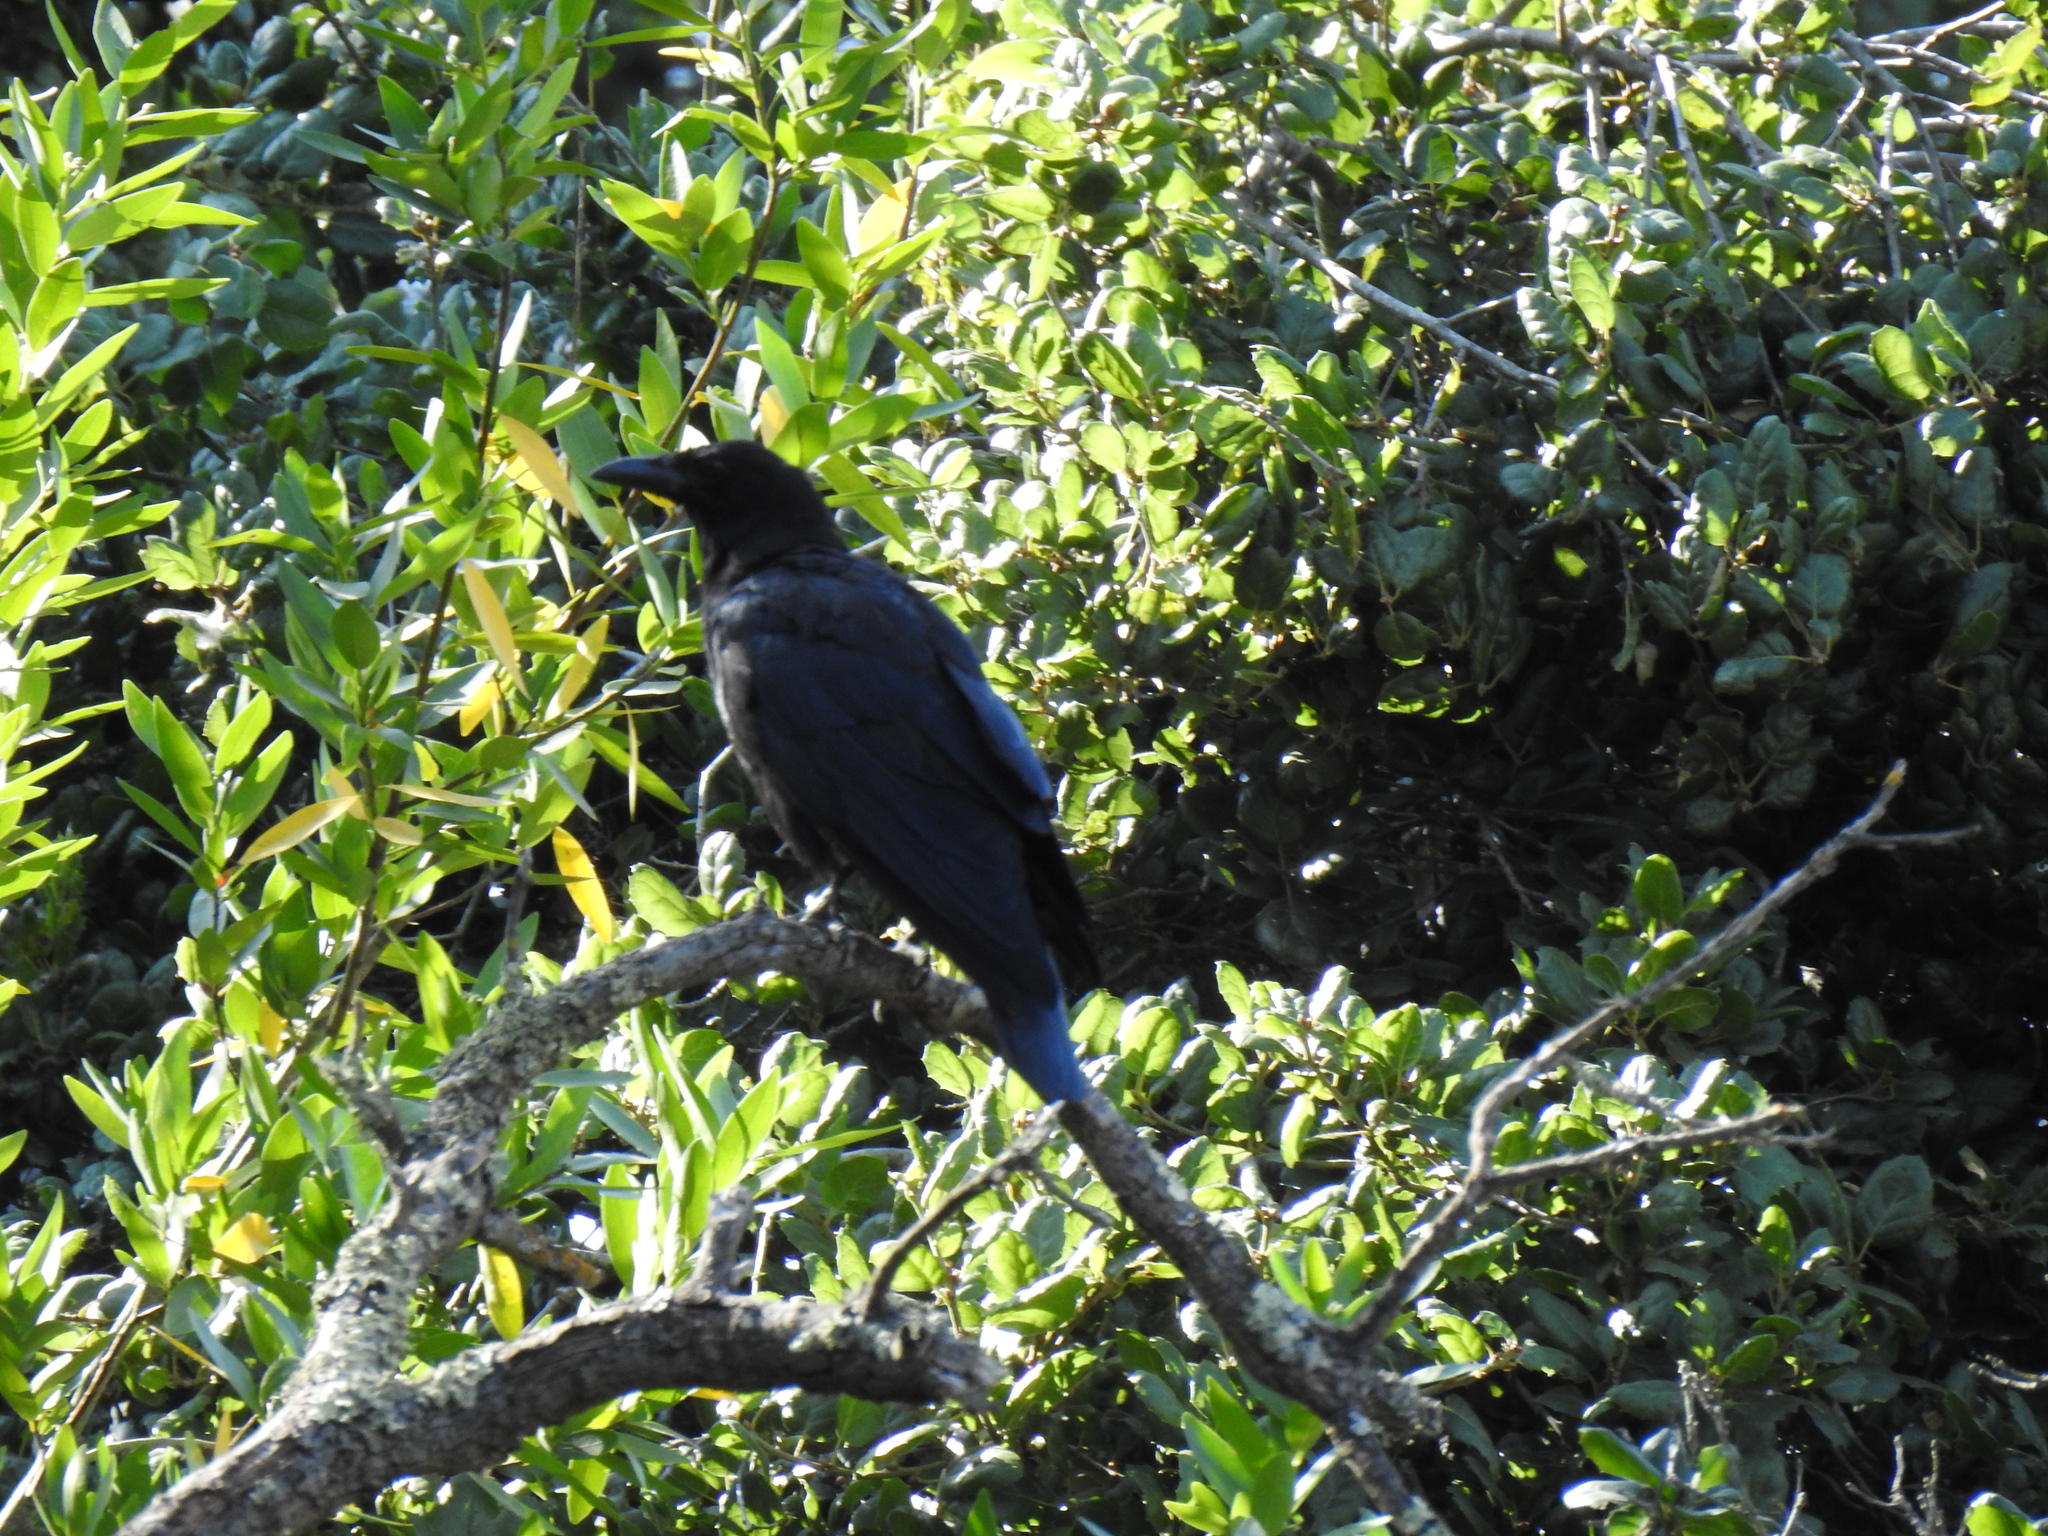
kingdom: Animalia
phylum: Chordata
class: Aves
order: Passeriformes
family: Corvidae
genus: Corvus
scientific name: Corvus brachyrhynchos
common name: American crow
